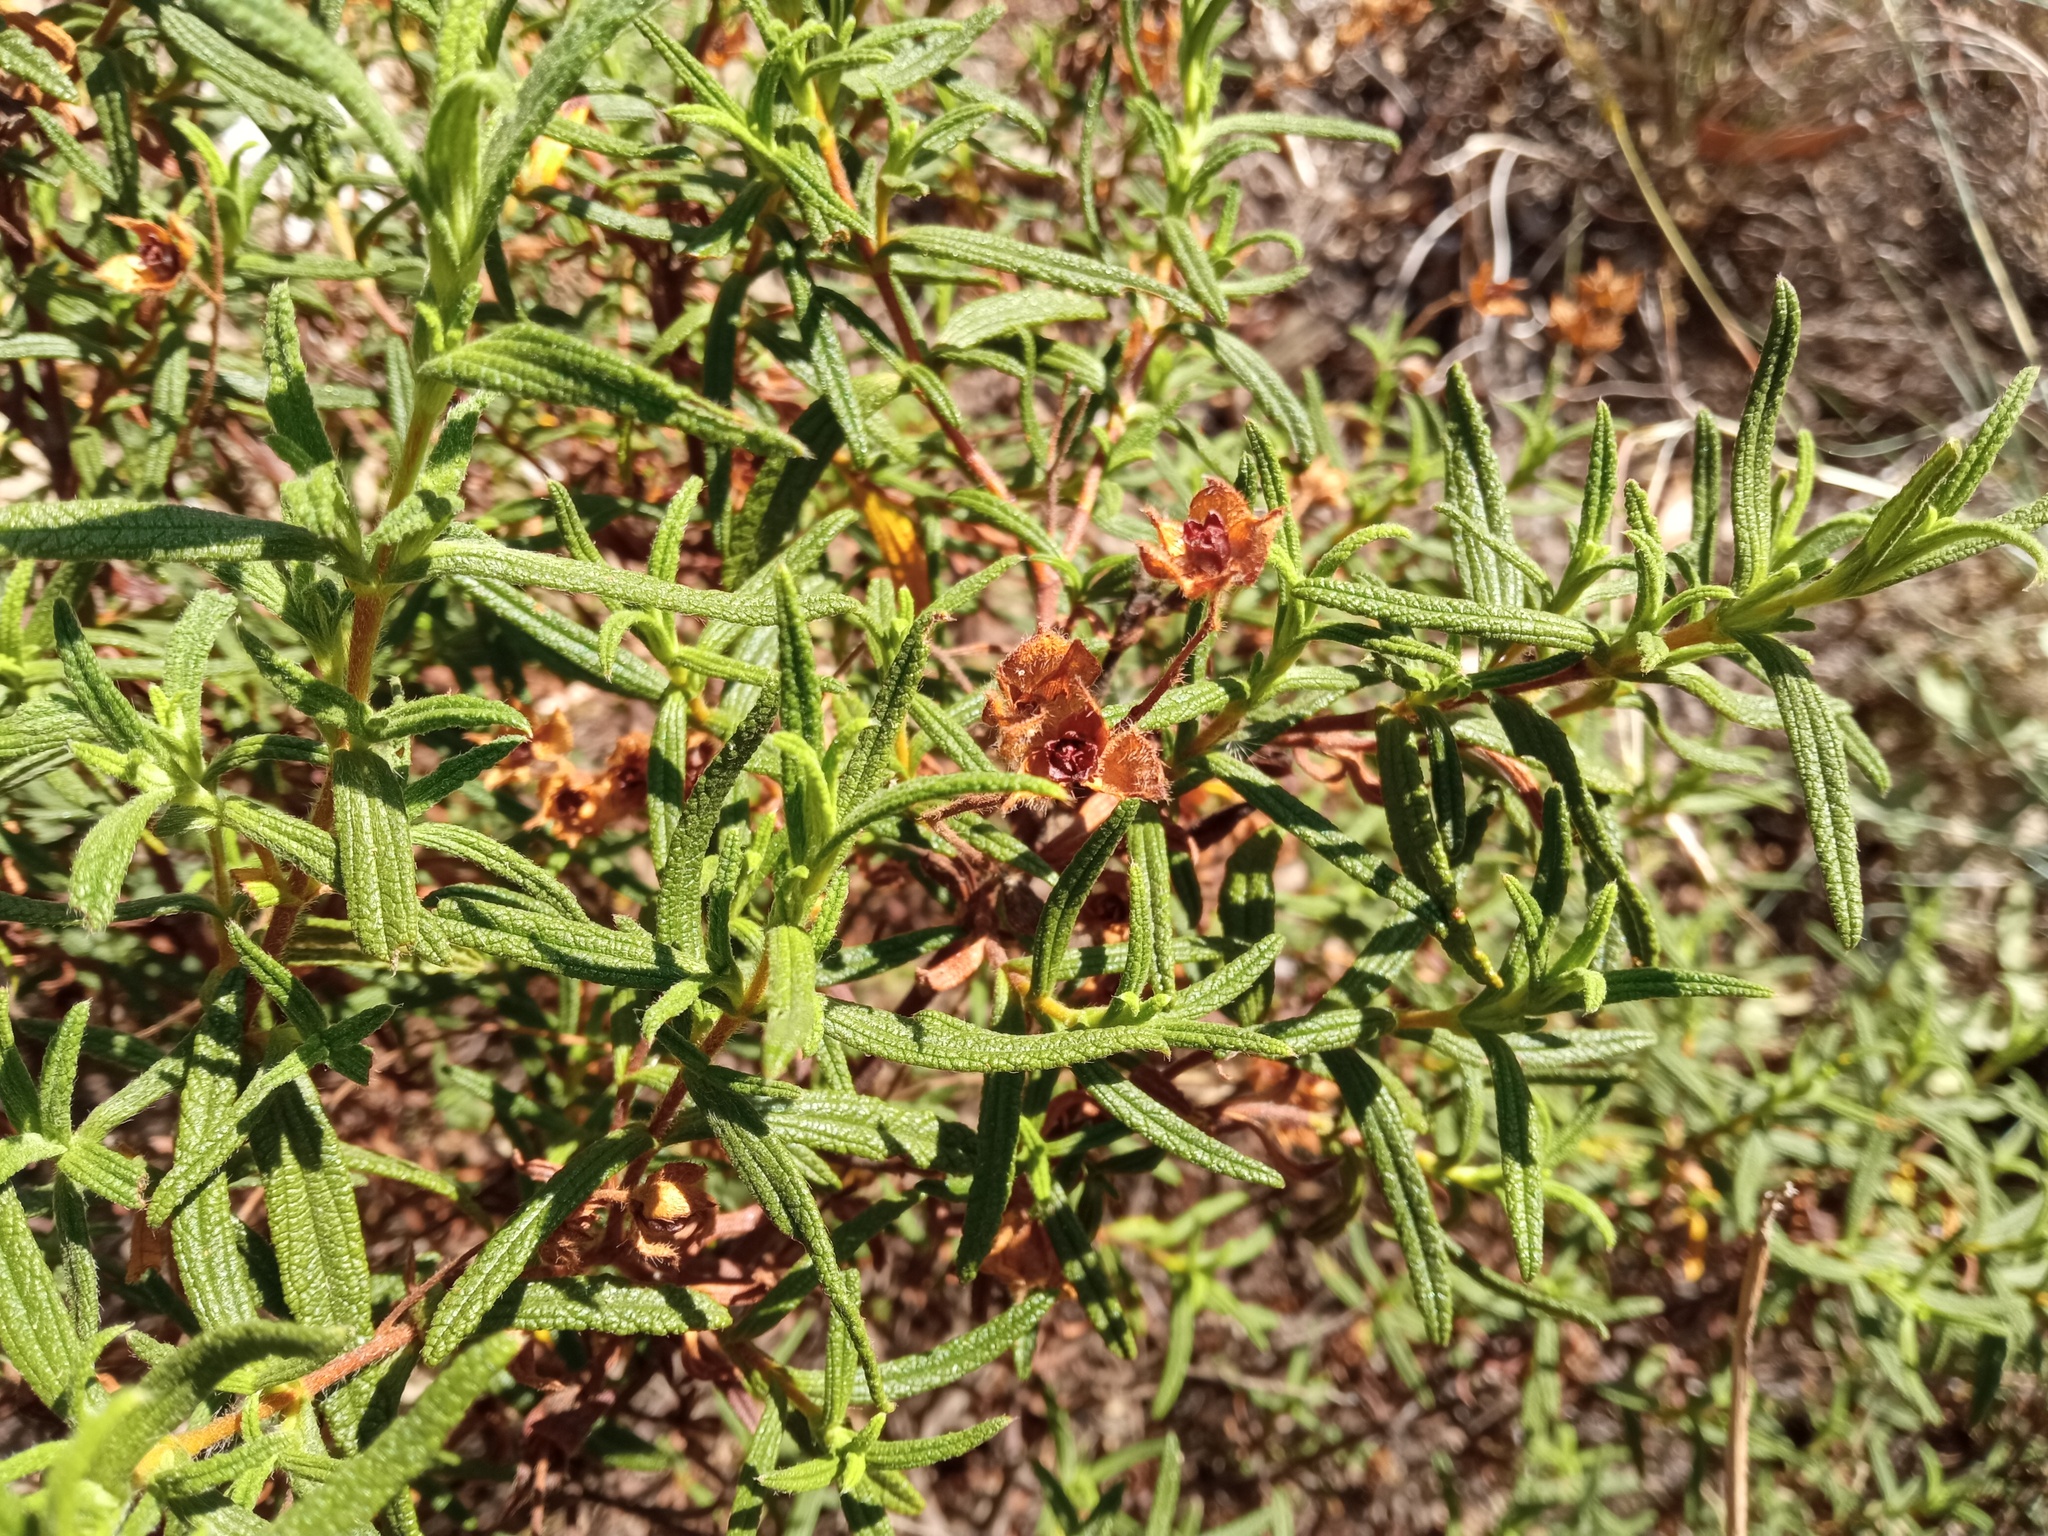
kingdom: Plantae
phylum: Tracheophyta
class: Magnoliopsida
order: Malvales
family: Cistaceae
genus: Cistus
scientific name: Cistus monspeliensis
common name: Montpelier cistus
